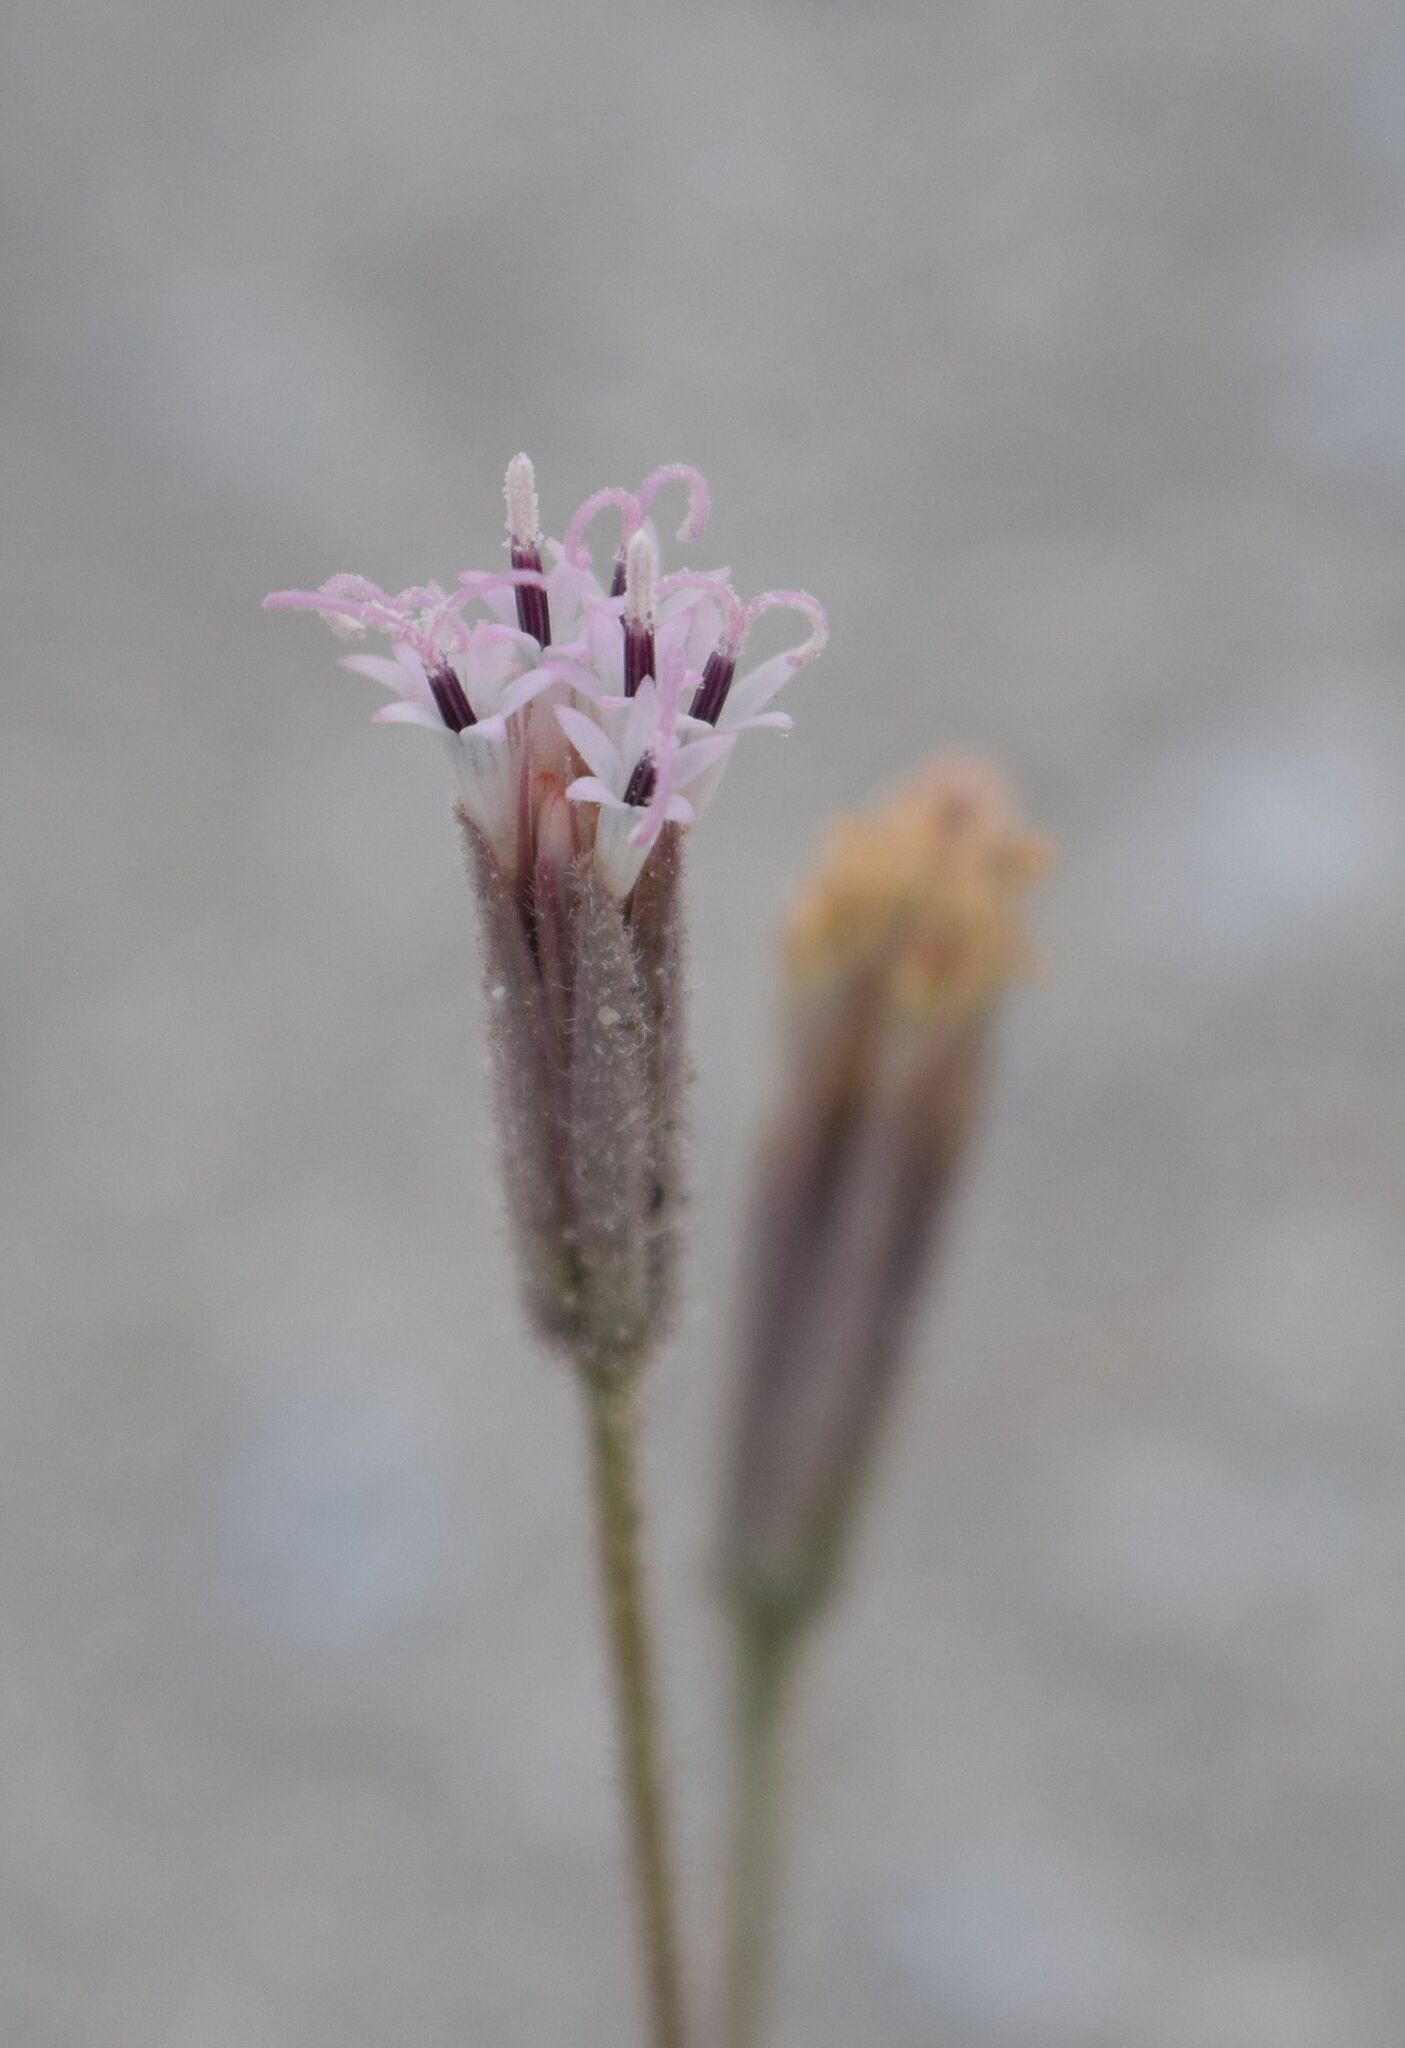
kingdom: Plantae
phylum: Tracheophyta
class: Magnoliopsida
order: Asterales
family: Asteraceae
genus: Palafoxia
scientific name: Palafoxia arida
